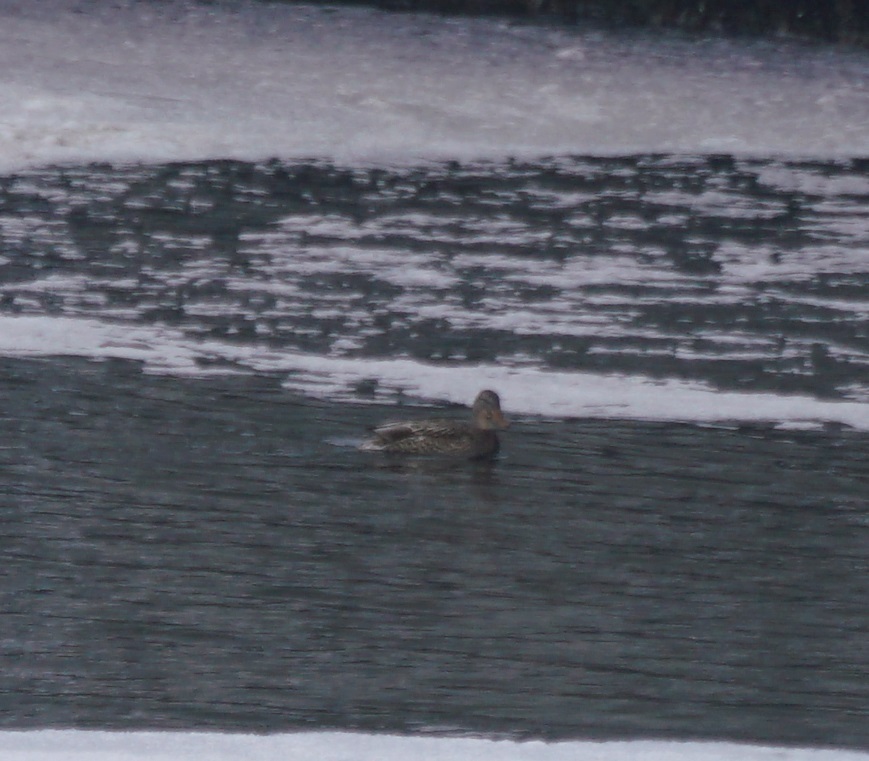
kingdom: Animalia
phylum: Chordata
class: Aves
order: Anseriformes
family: Anatidae
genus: Anas
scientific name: Anas platyrhynchos
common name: Mallard
